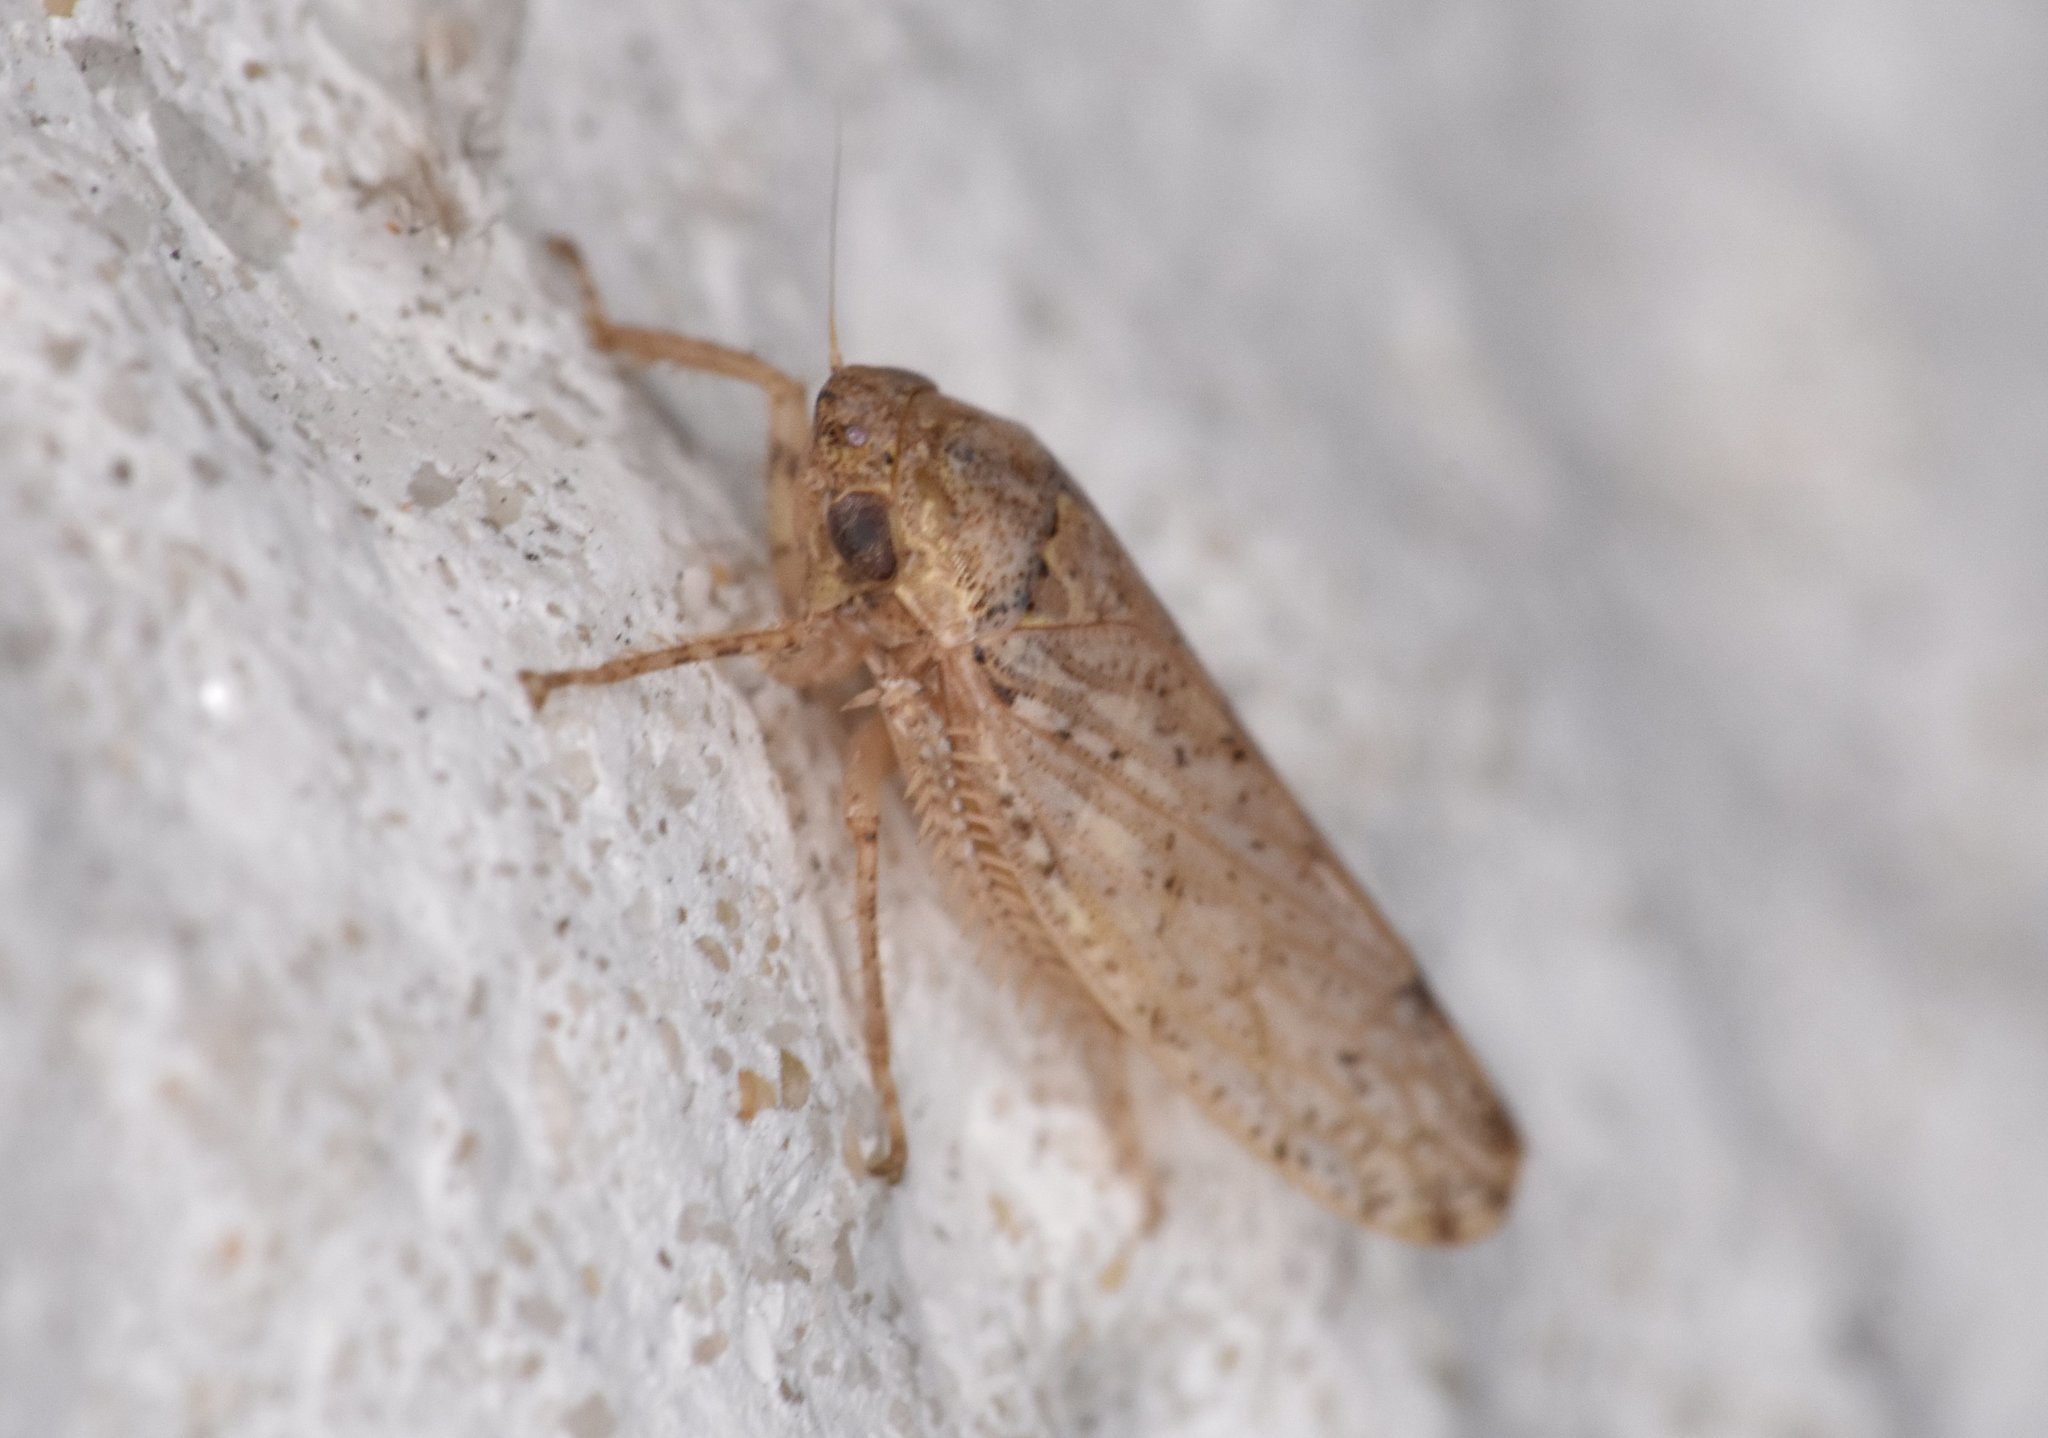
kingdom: Animalia
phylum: Arthropoda
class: Insecta
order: Hemiptera
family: Cicadellidae
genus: Curtara
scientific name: Curtara insularis
